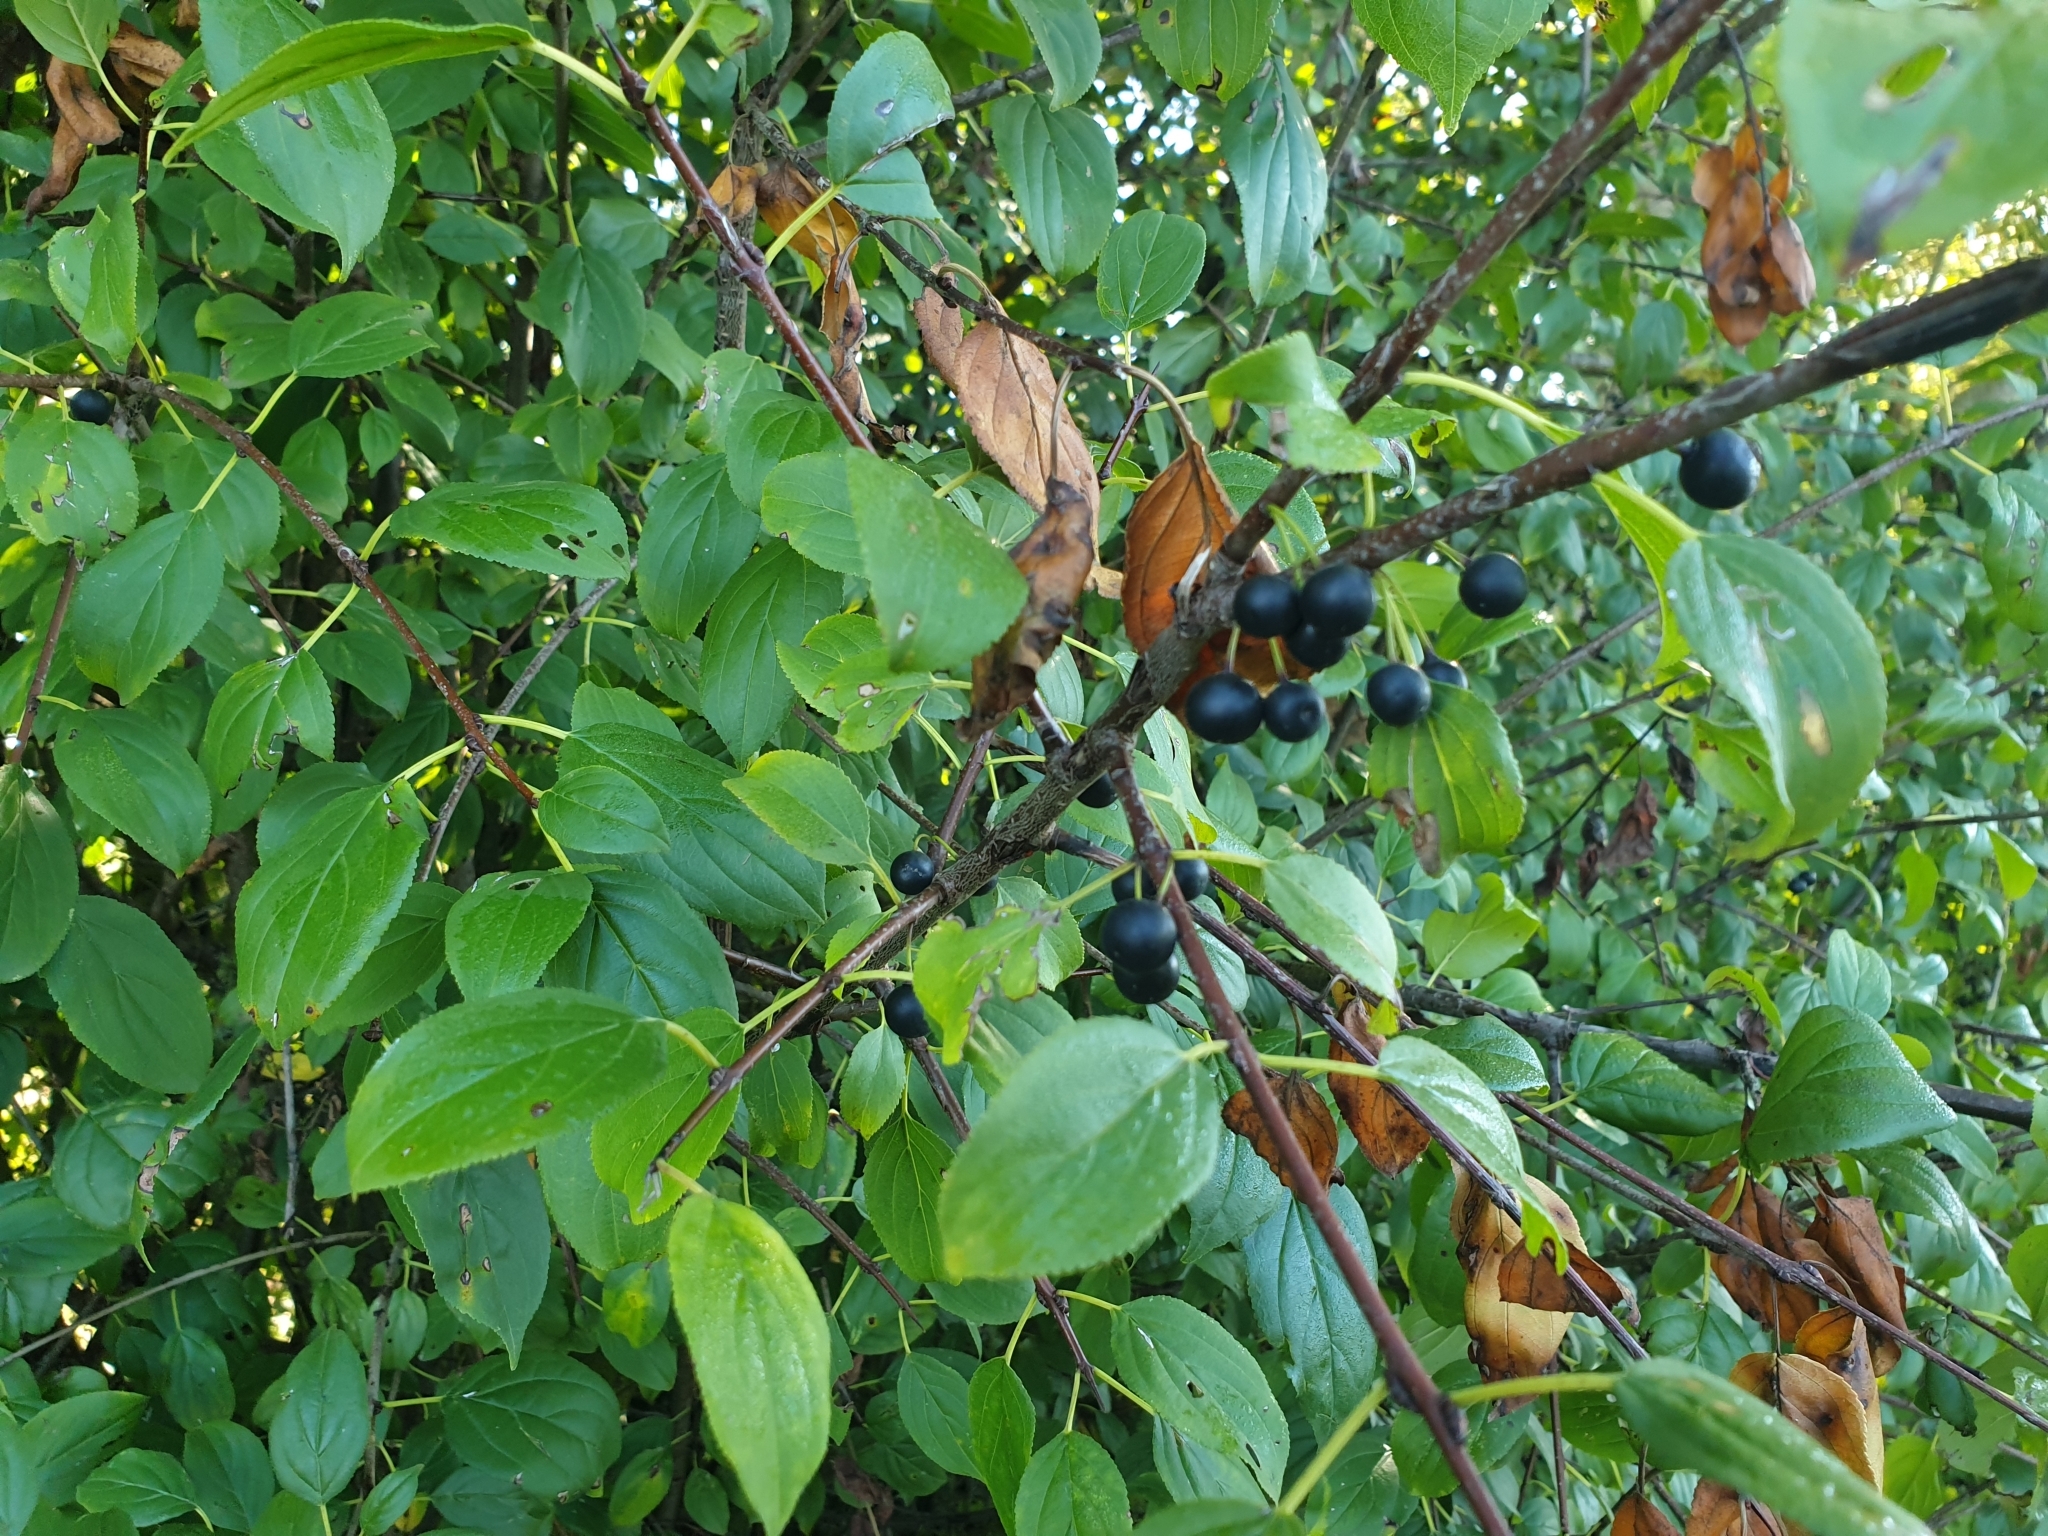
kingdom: Plantae
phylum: Tracheophyta
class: Magnoliopsida
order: Rosales
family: Rhamnaceae
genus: Rhamnus
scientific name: Rhamnus cathartica
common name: Common buckthorn
